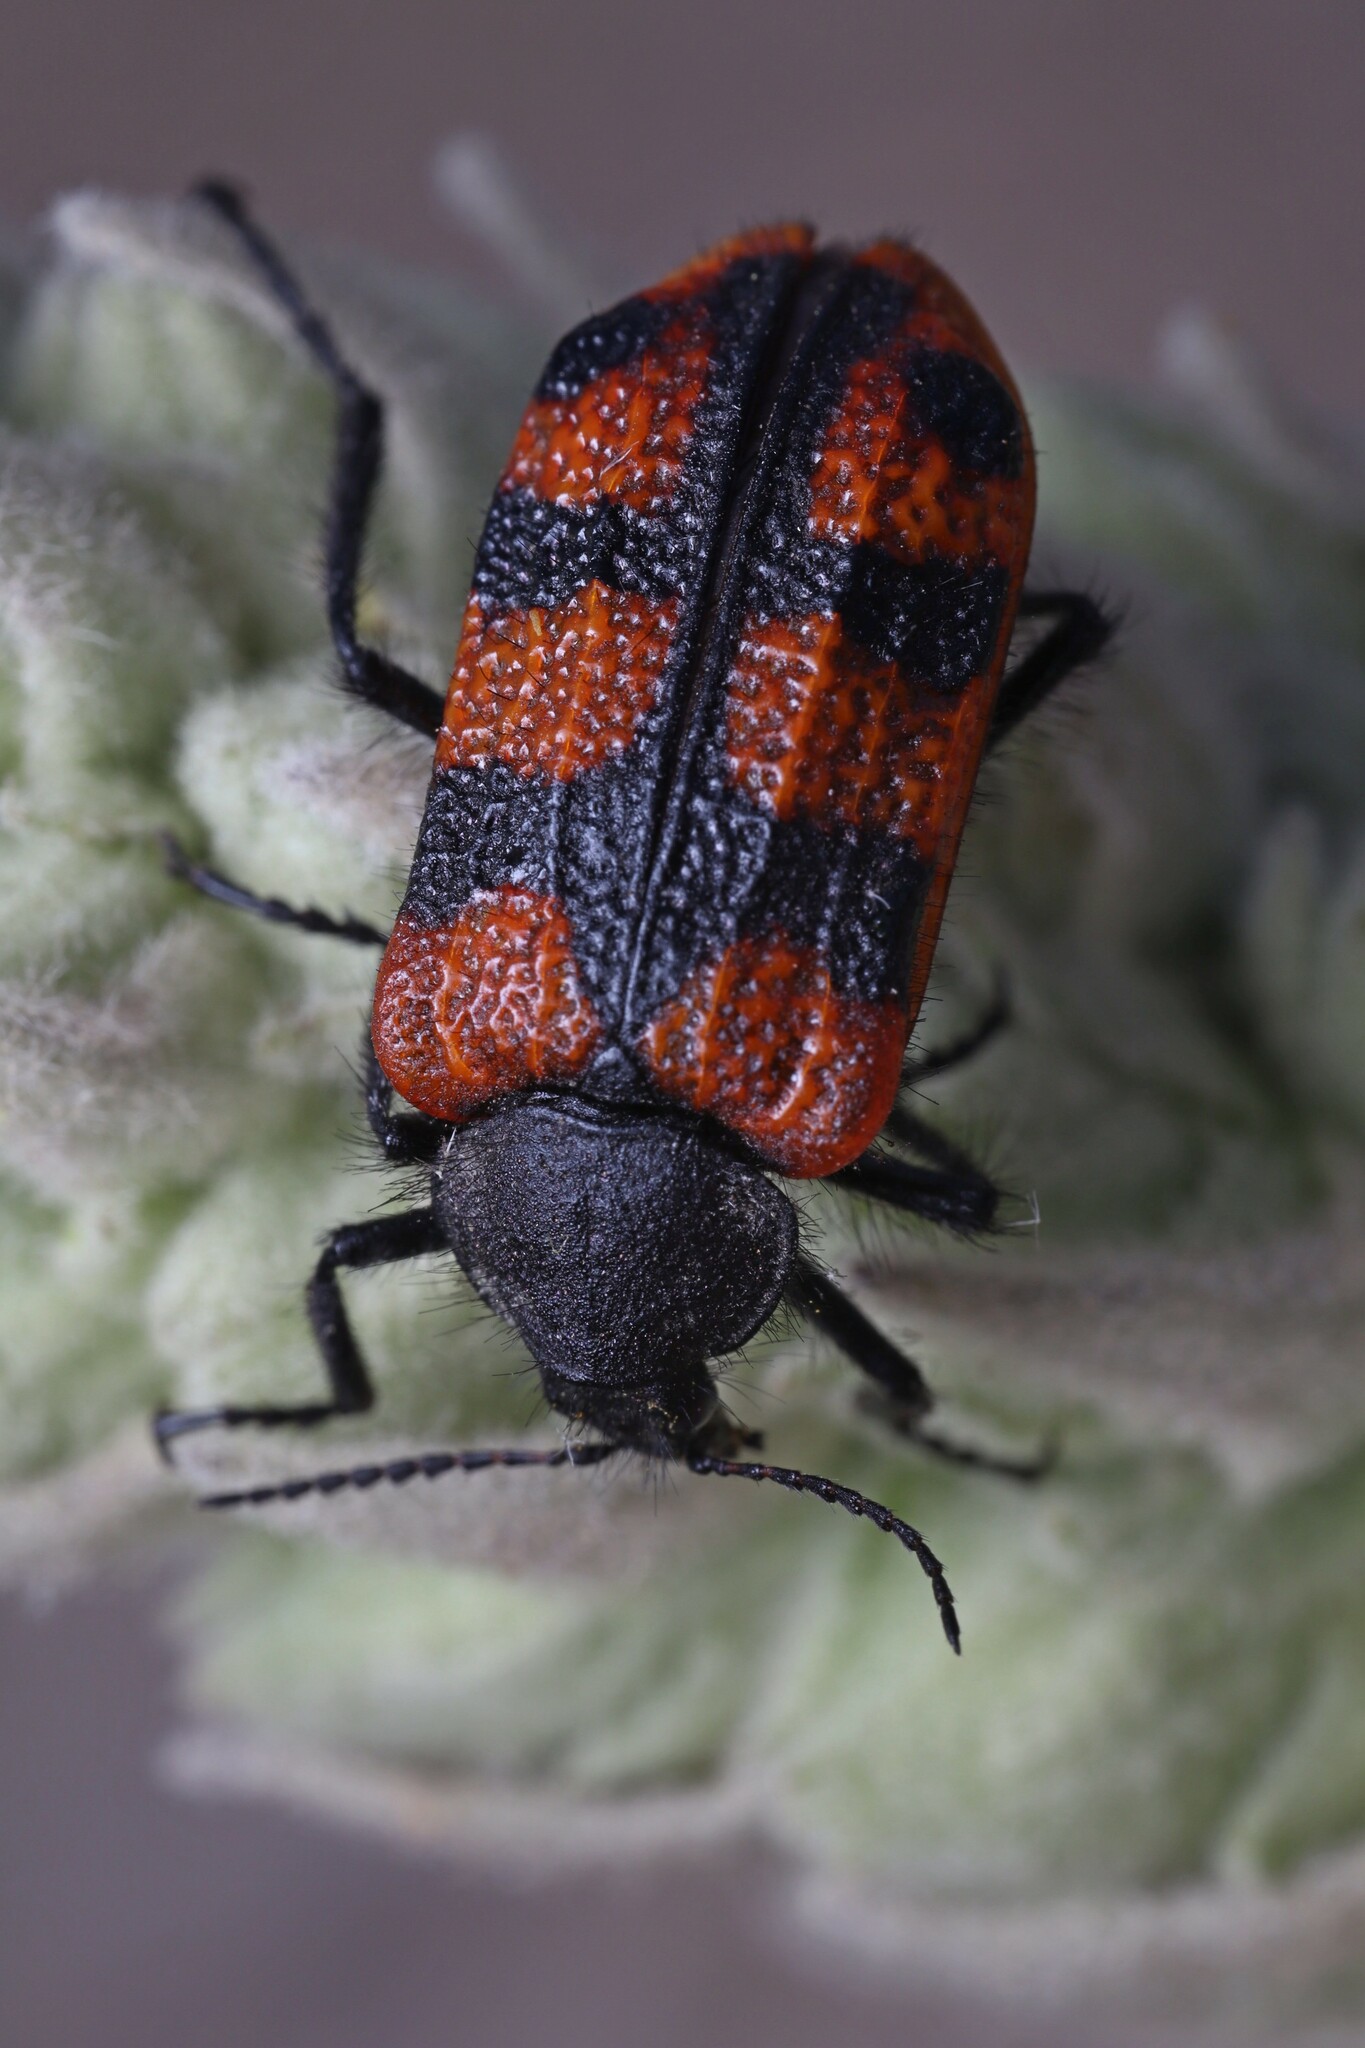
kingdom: Animalia
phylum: Arthropoda
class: Insecta
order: Coleoptera
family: Melyridae
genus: Astylus
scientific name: Astylus
